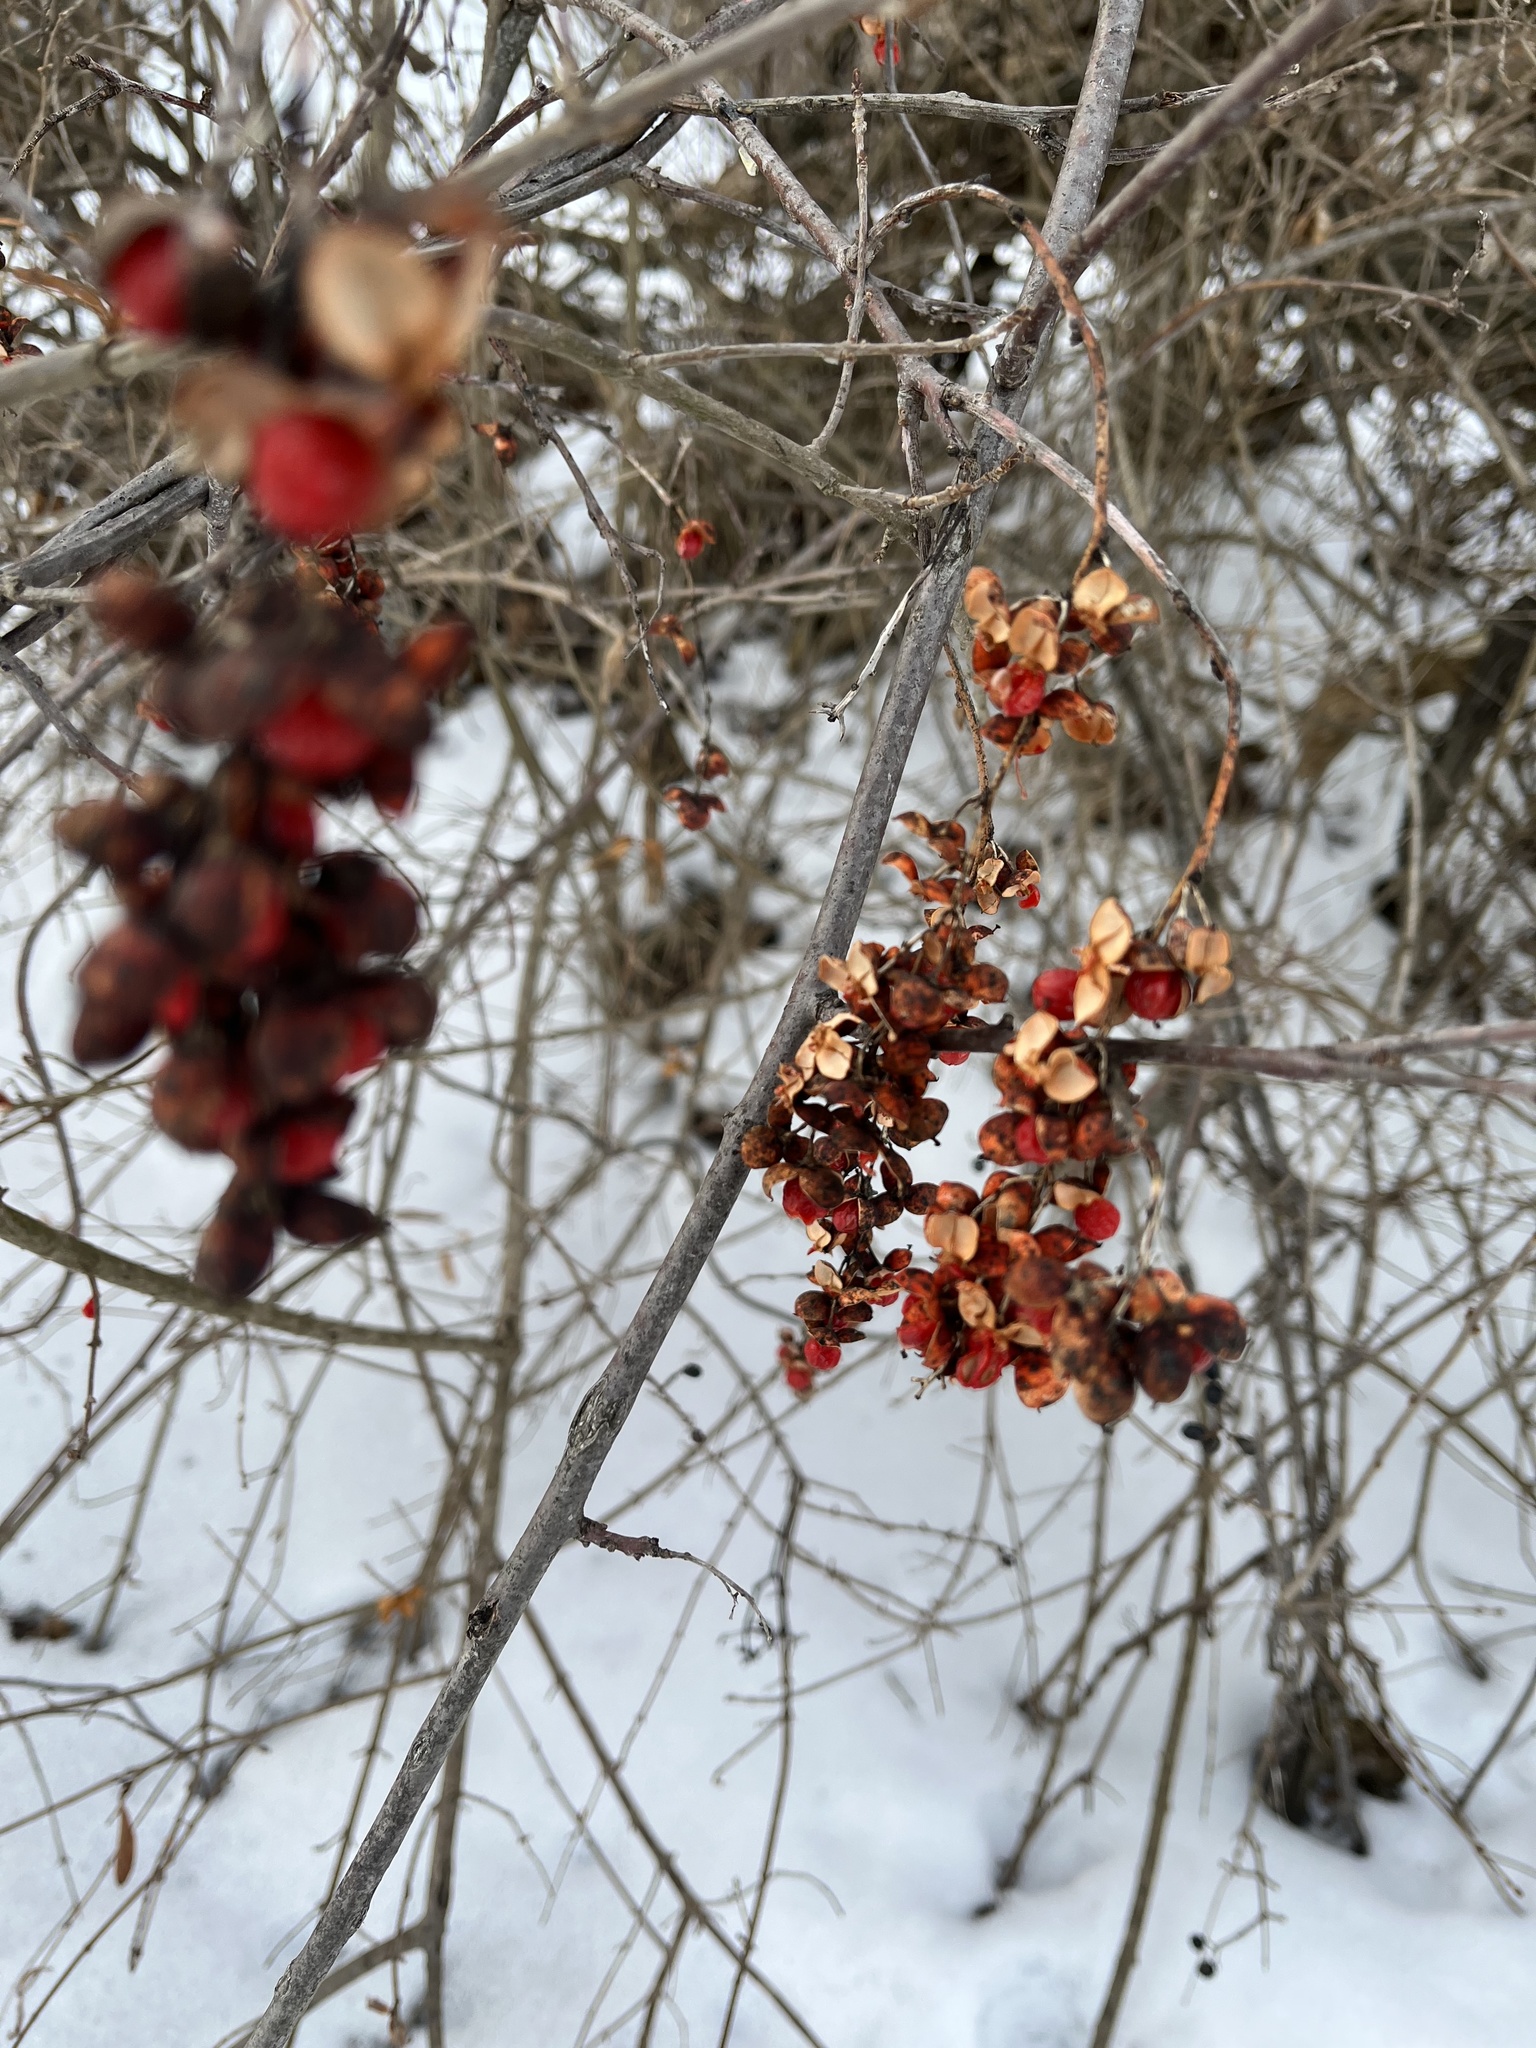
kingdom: Plantae
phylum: Tracheophyta
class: Magnoliopsida
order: Celastrales
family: Celastraceae
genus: Celastrus
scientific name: Celastrus scandens
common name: American bittersweet
